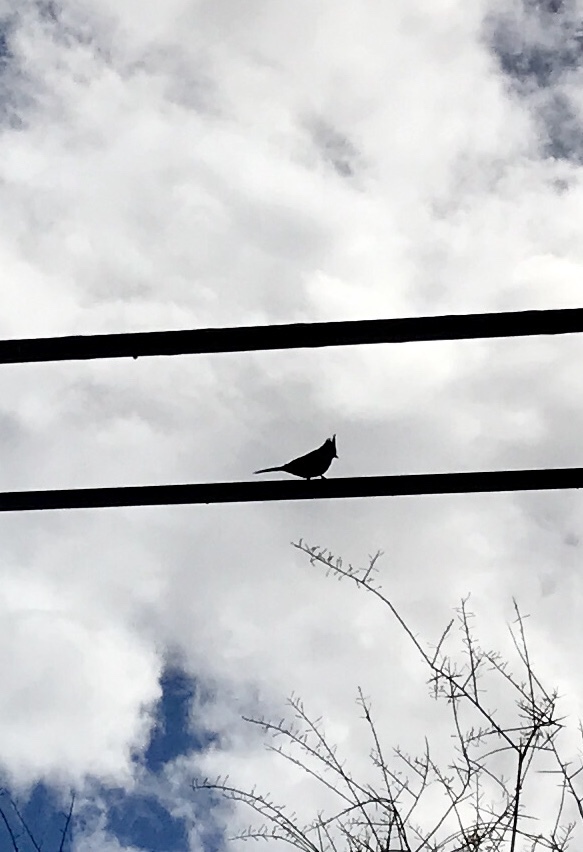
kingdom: Animalia
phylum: Chordata
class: Aves
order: Passeriformes
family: Ptilogonatidae
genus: Phainopepla
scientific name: Phainopepla nitens
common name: Phainopepla
